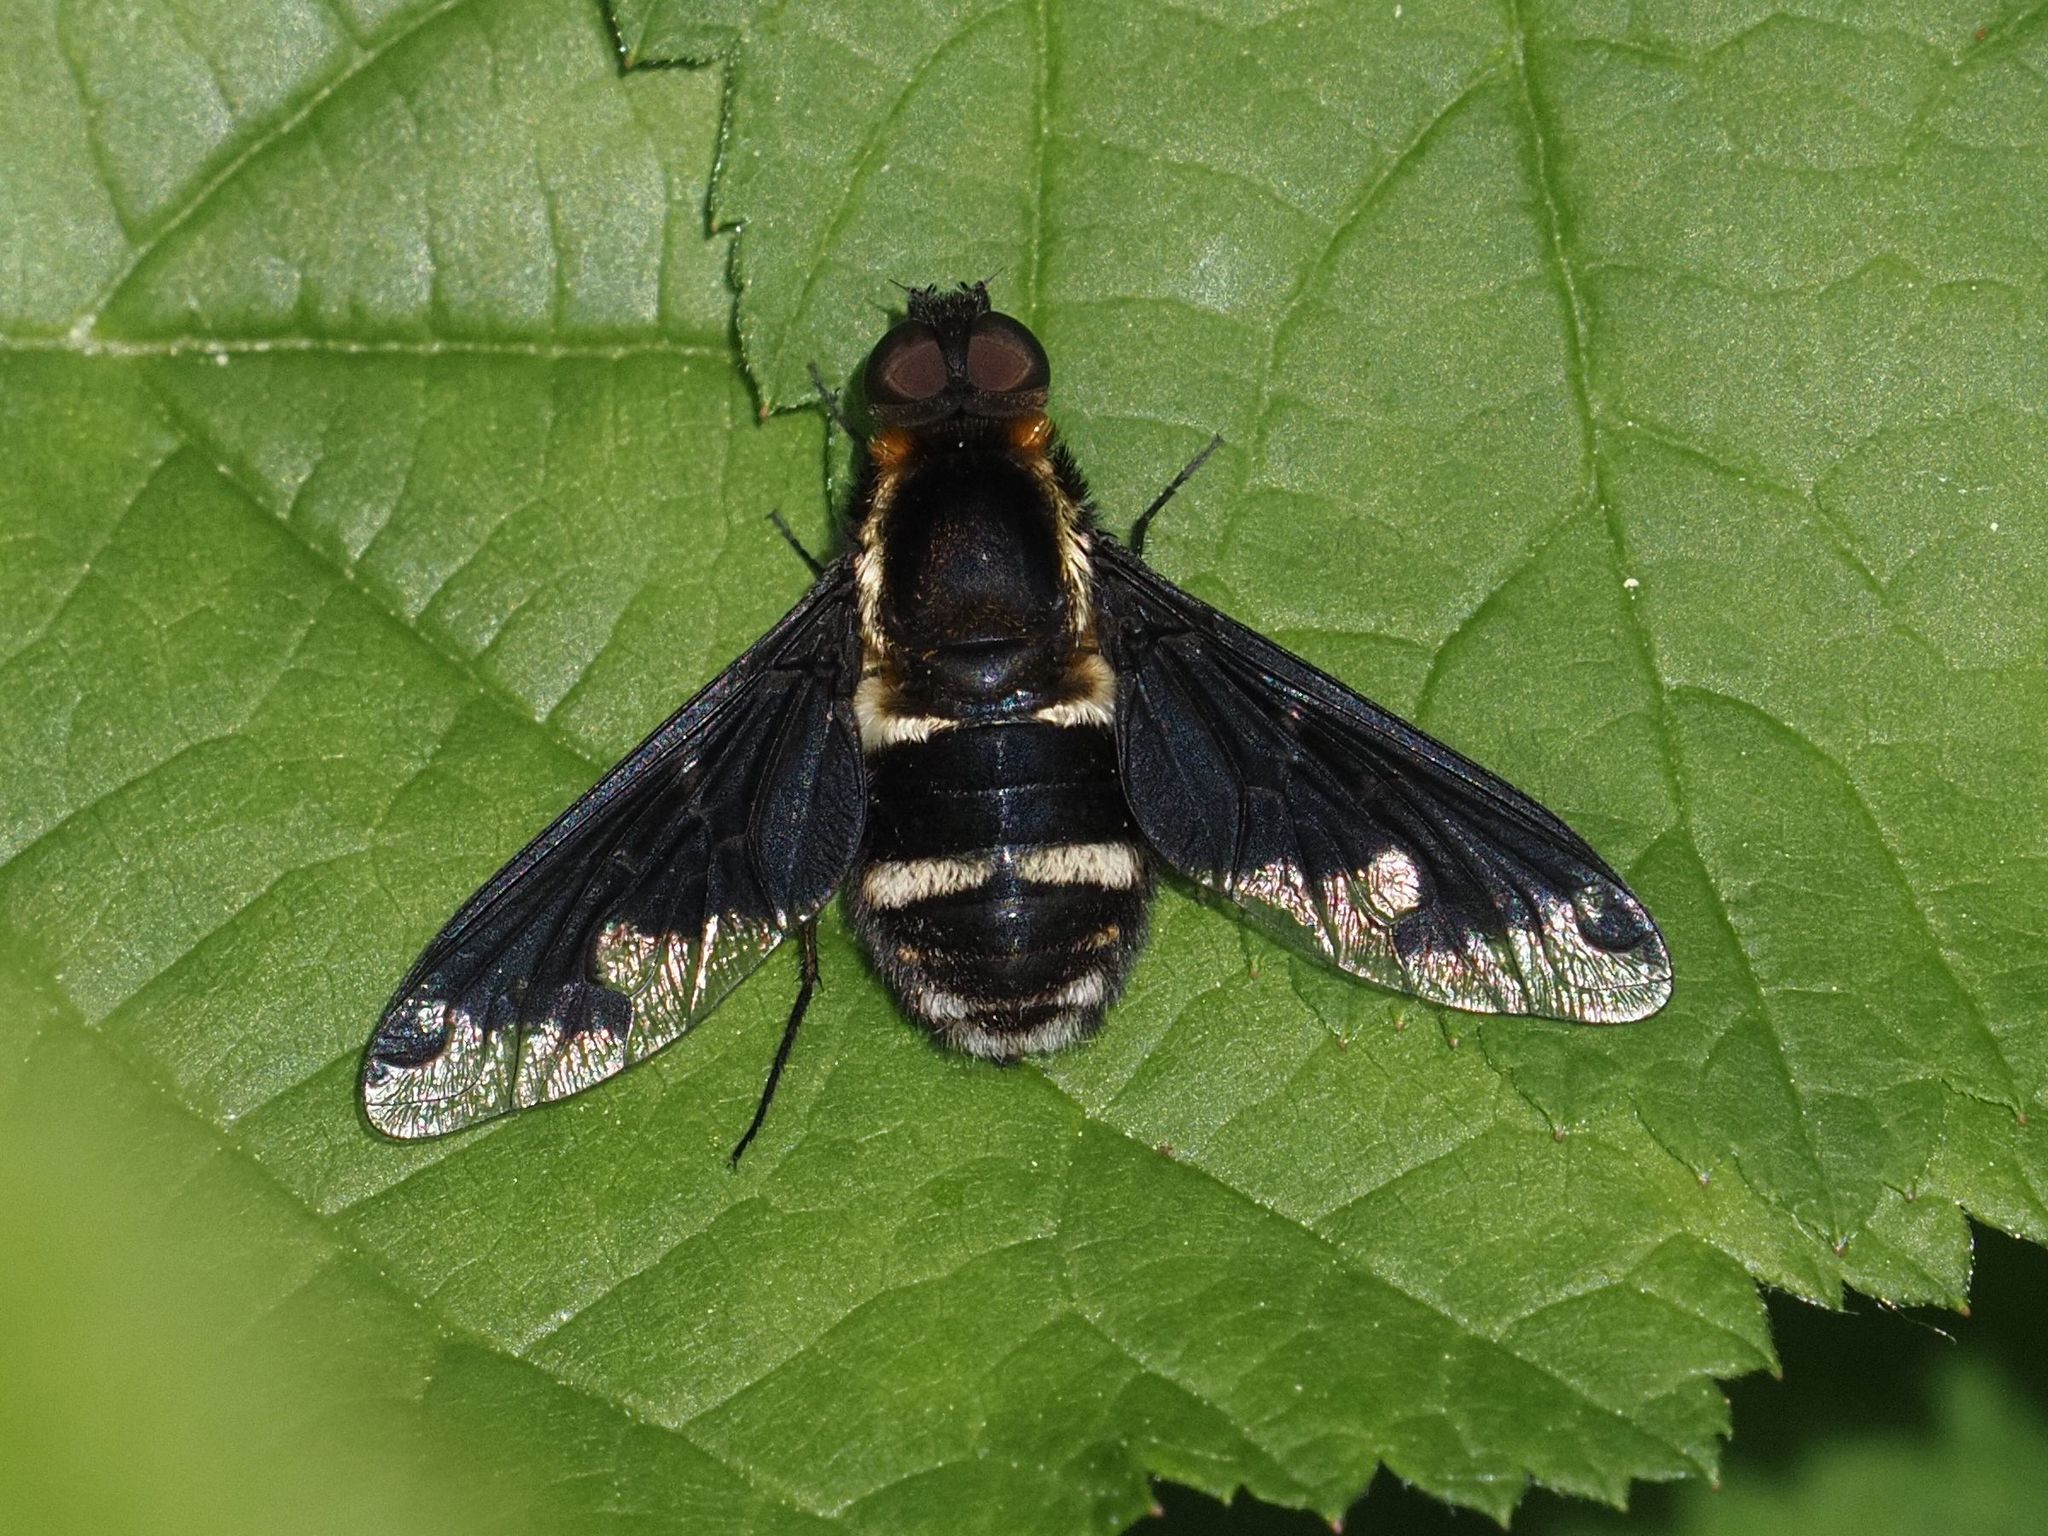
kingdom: Animalia
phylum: Arthropoda
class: Insecta
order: Diptera
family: Bombyliidae
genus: Hemipenthes
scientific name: Hemipenthes maura
